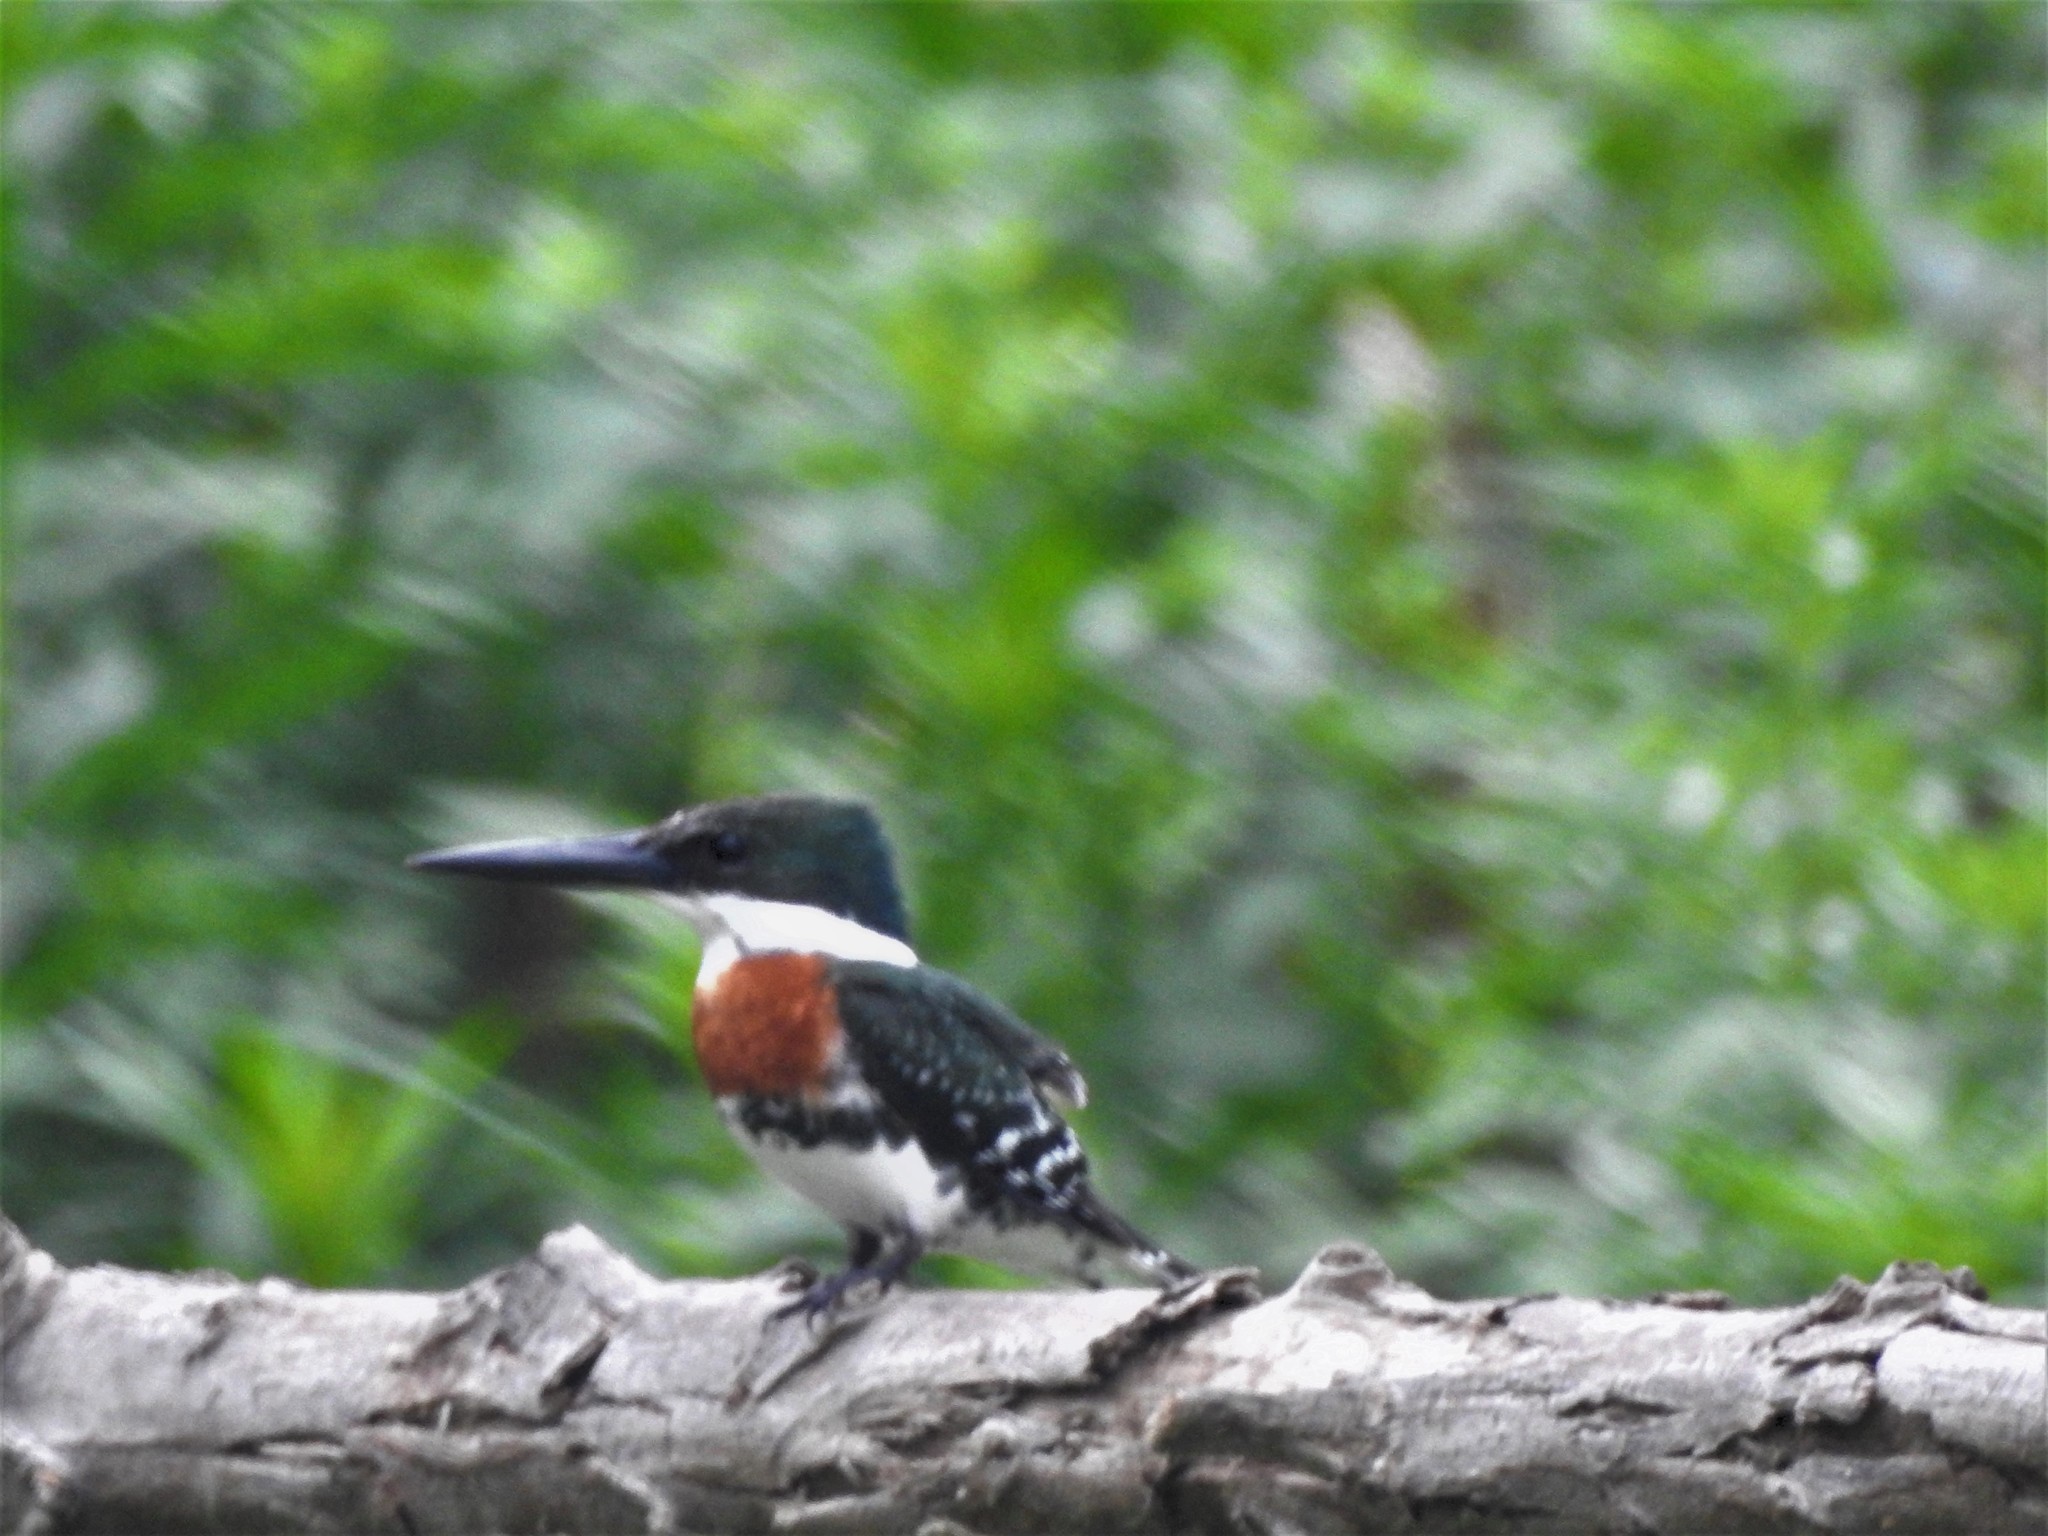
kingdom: Animalia
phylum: Chordata
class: Aves
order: Coraciiformes
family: Alcedinidae
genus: Chloroceryle
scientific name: Chloroceryle americana
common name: Green kingfisher
